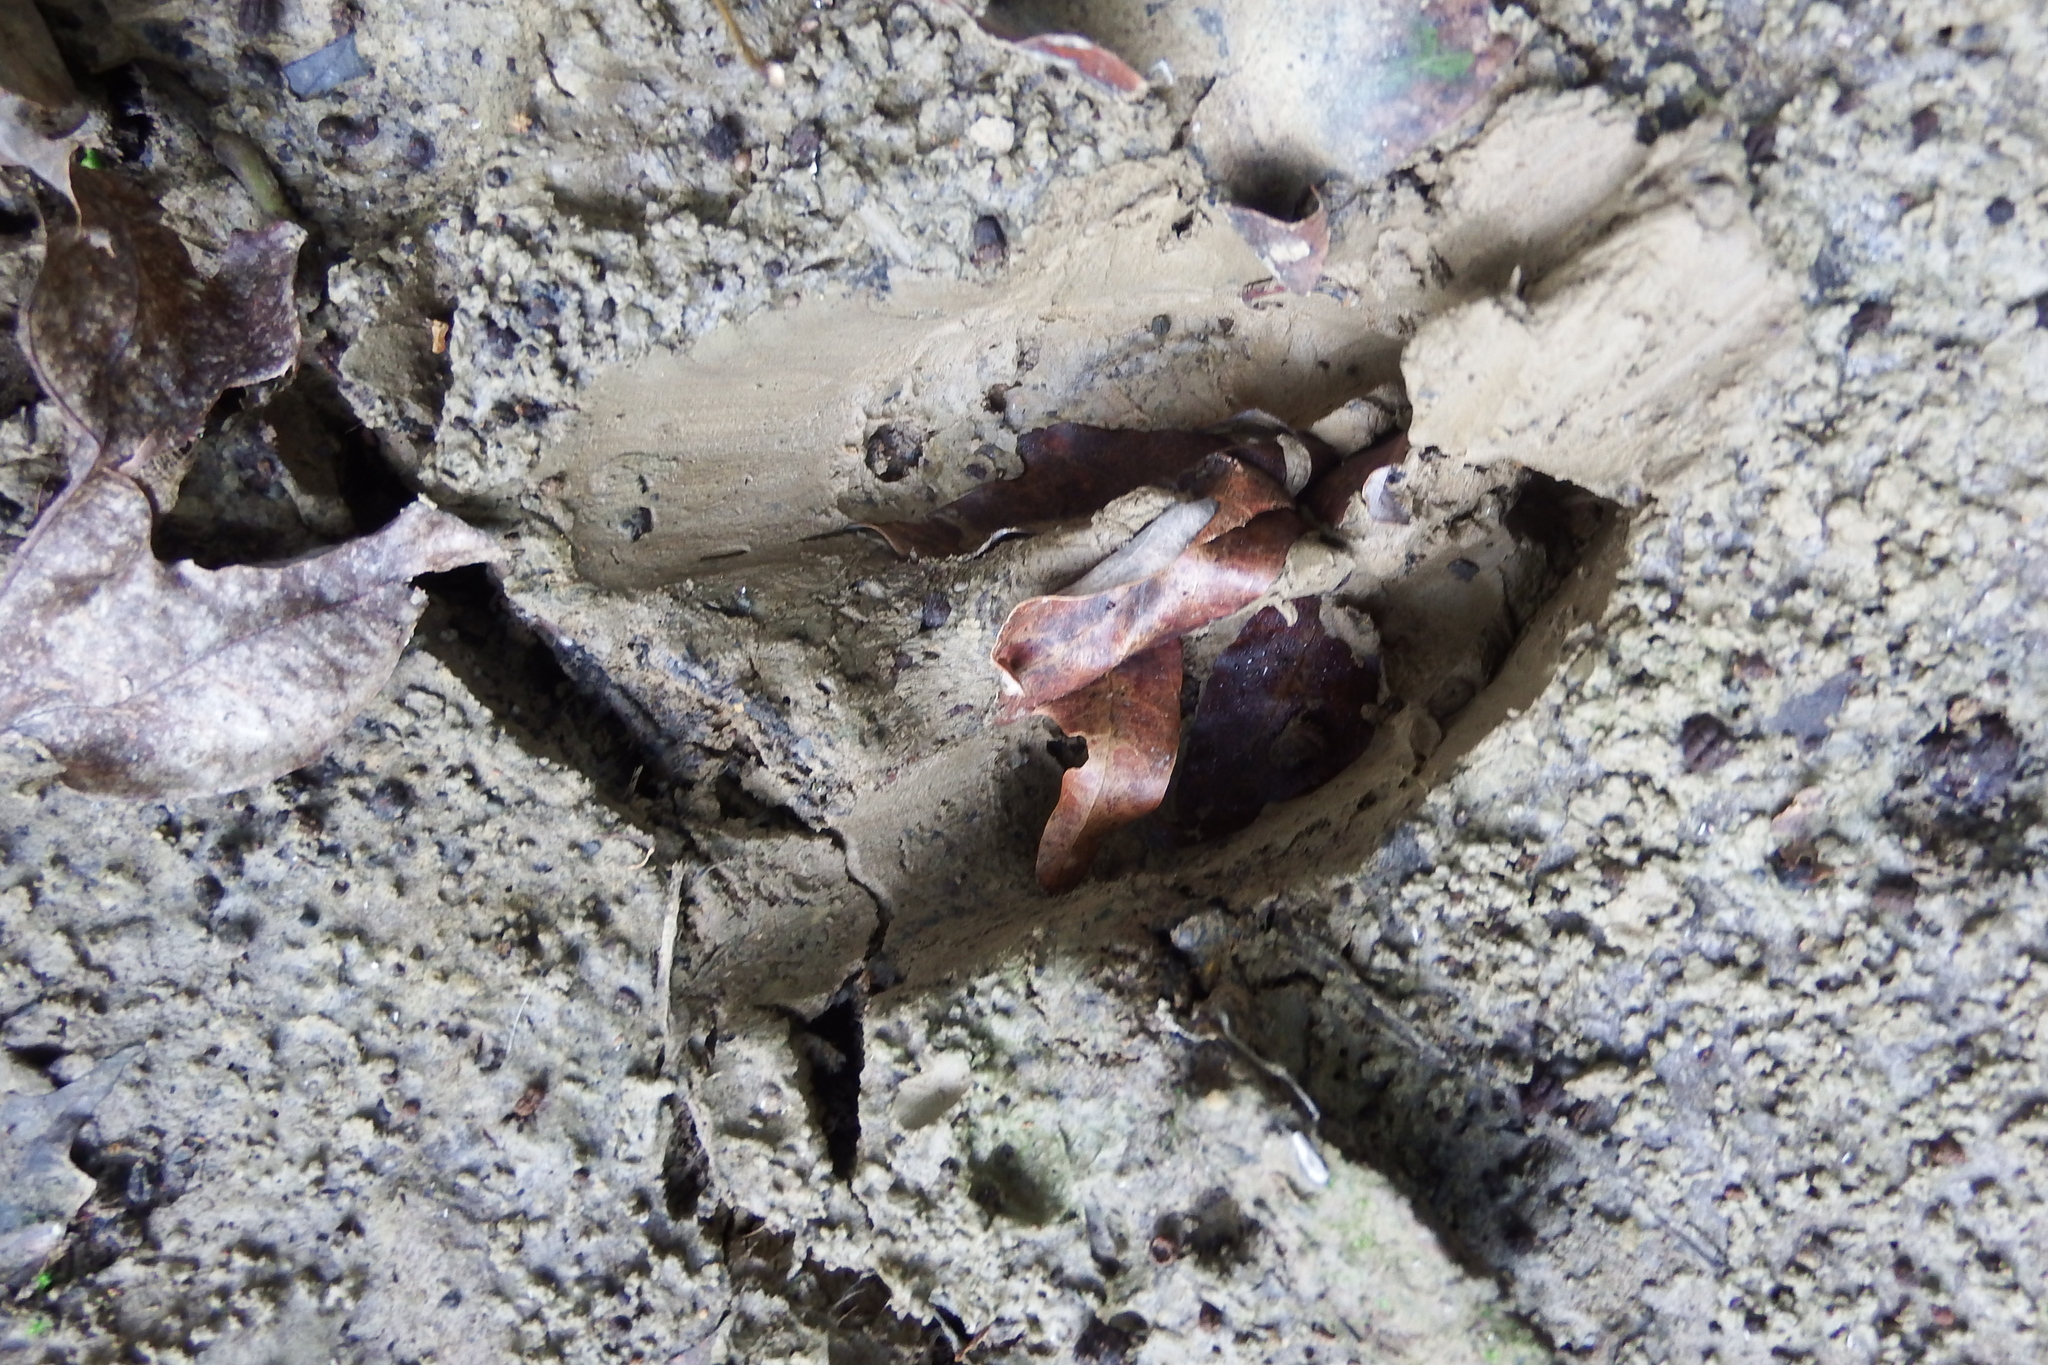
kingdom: Animalia
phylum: Chordata
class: Mammalia
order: Artiodactyla
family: Cervidae
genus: Odocoileus
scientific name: Odocoileus virginianus
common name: White-tailed deer
